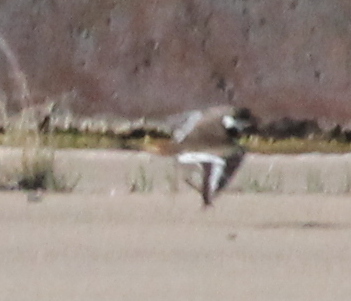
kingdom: Animalia
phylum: Chordata
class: Aves
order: Charadriiformes
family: Charadriidae
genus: Charadrius
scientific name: Charadrius vociferus
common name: Killdeer
